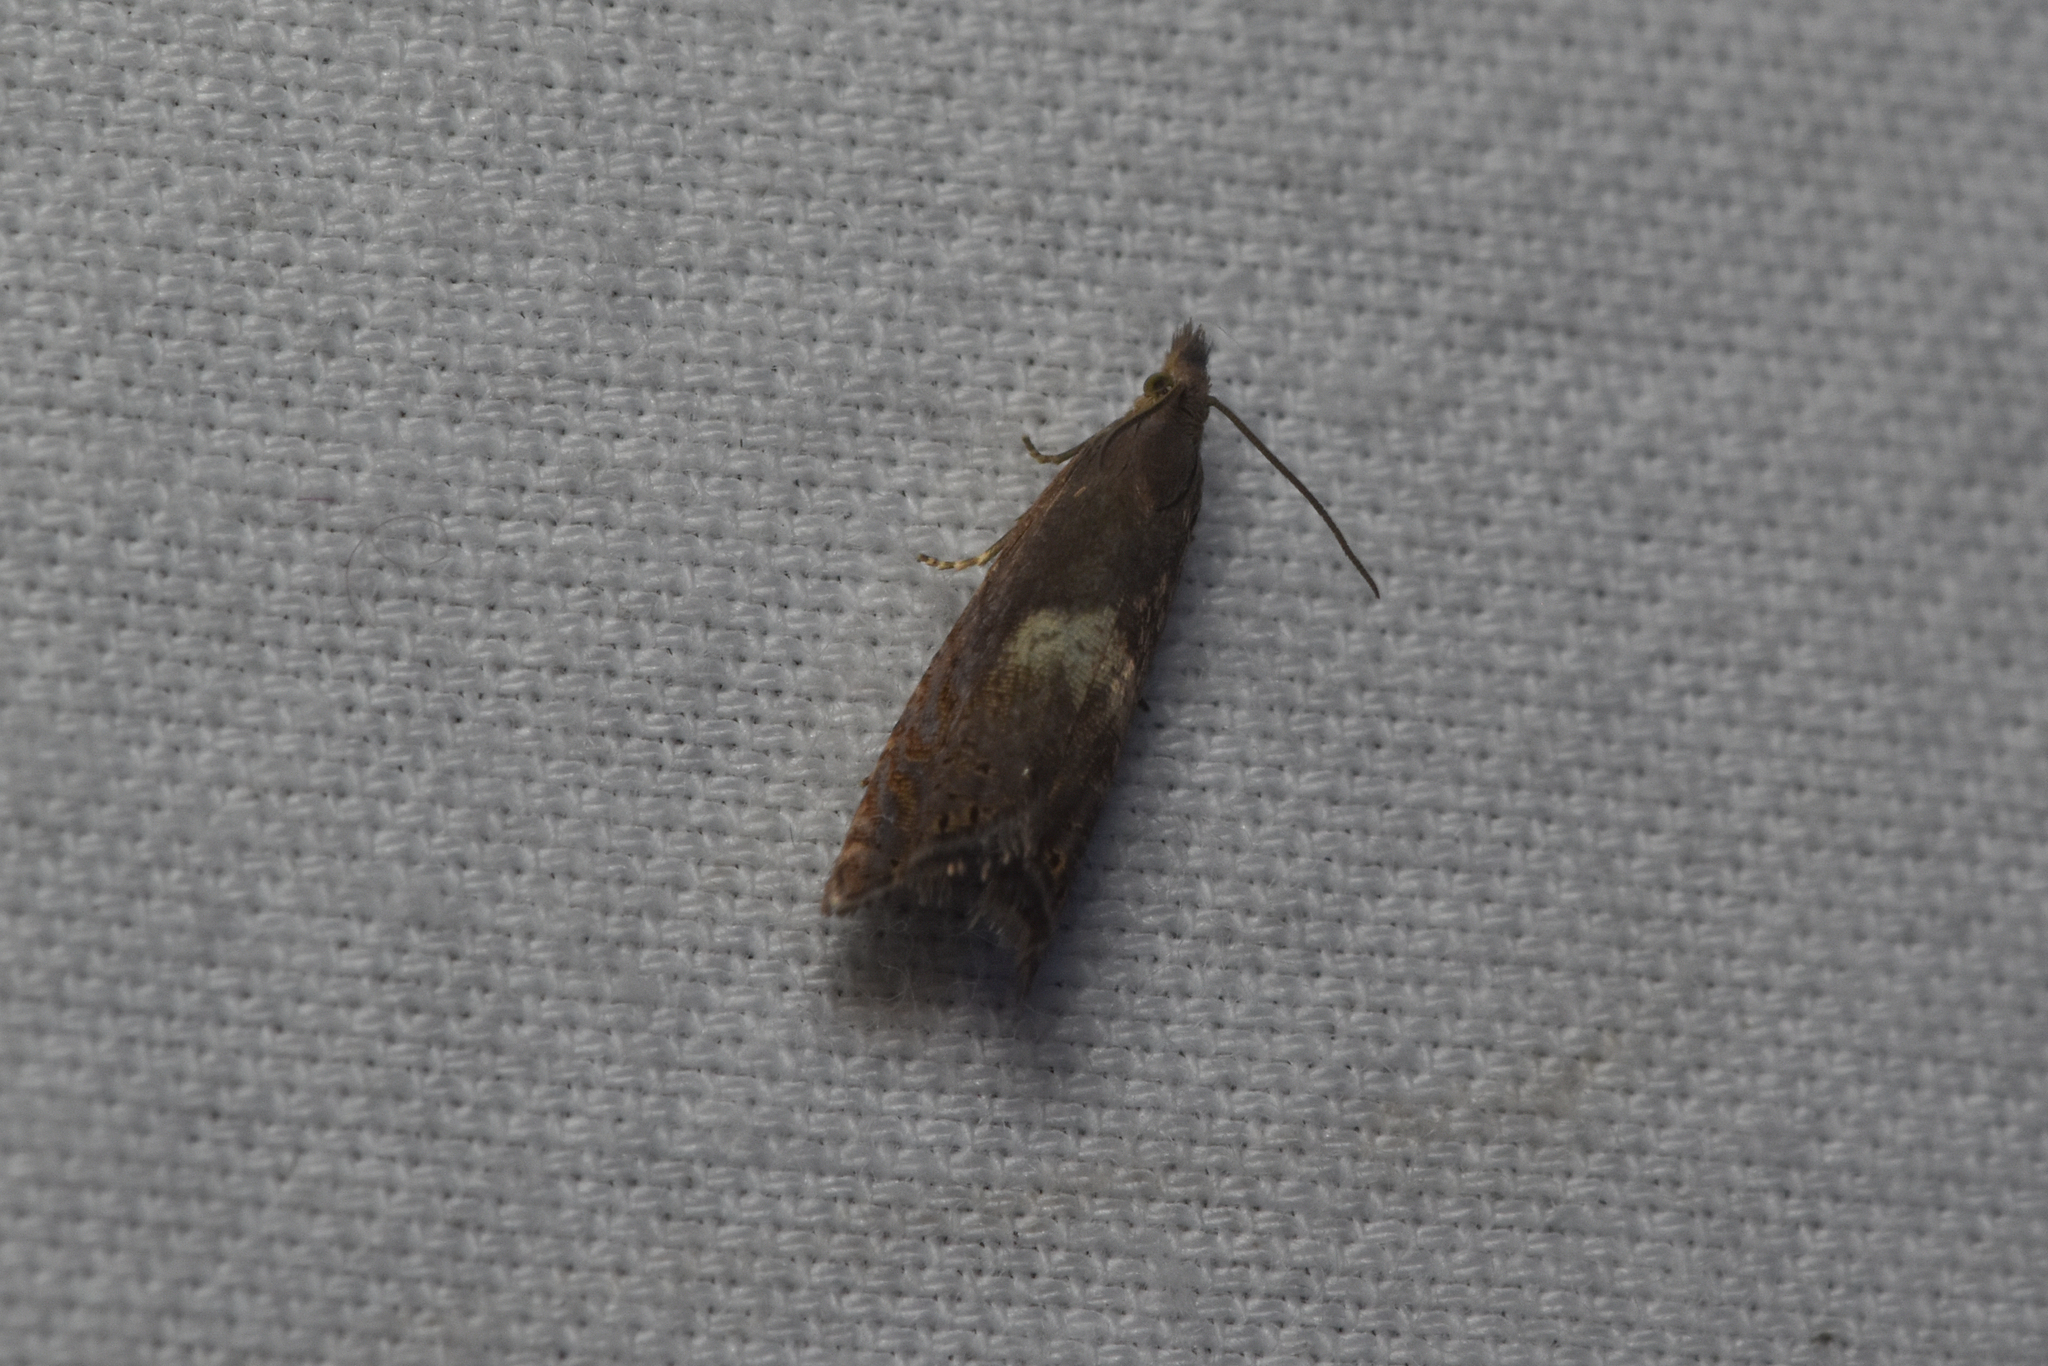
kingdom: Animalia
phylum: Arthropoda
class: Insecta
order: Lepidoptera
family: Tortricidae
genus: Dichrorampha
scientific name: Dichrorampha simulana
